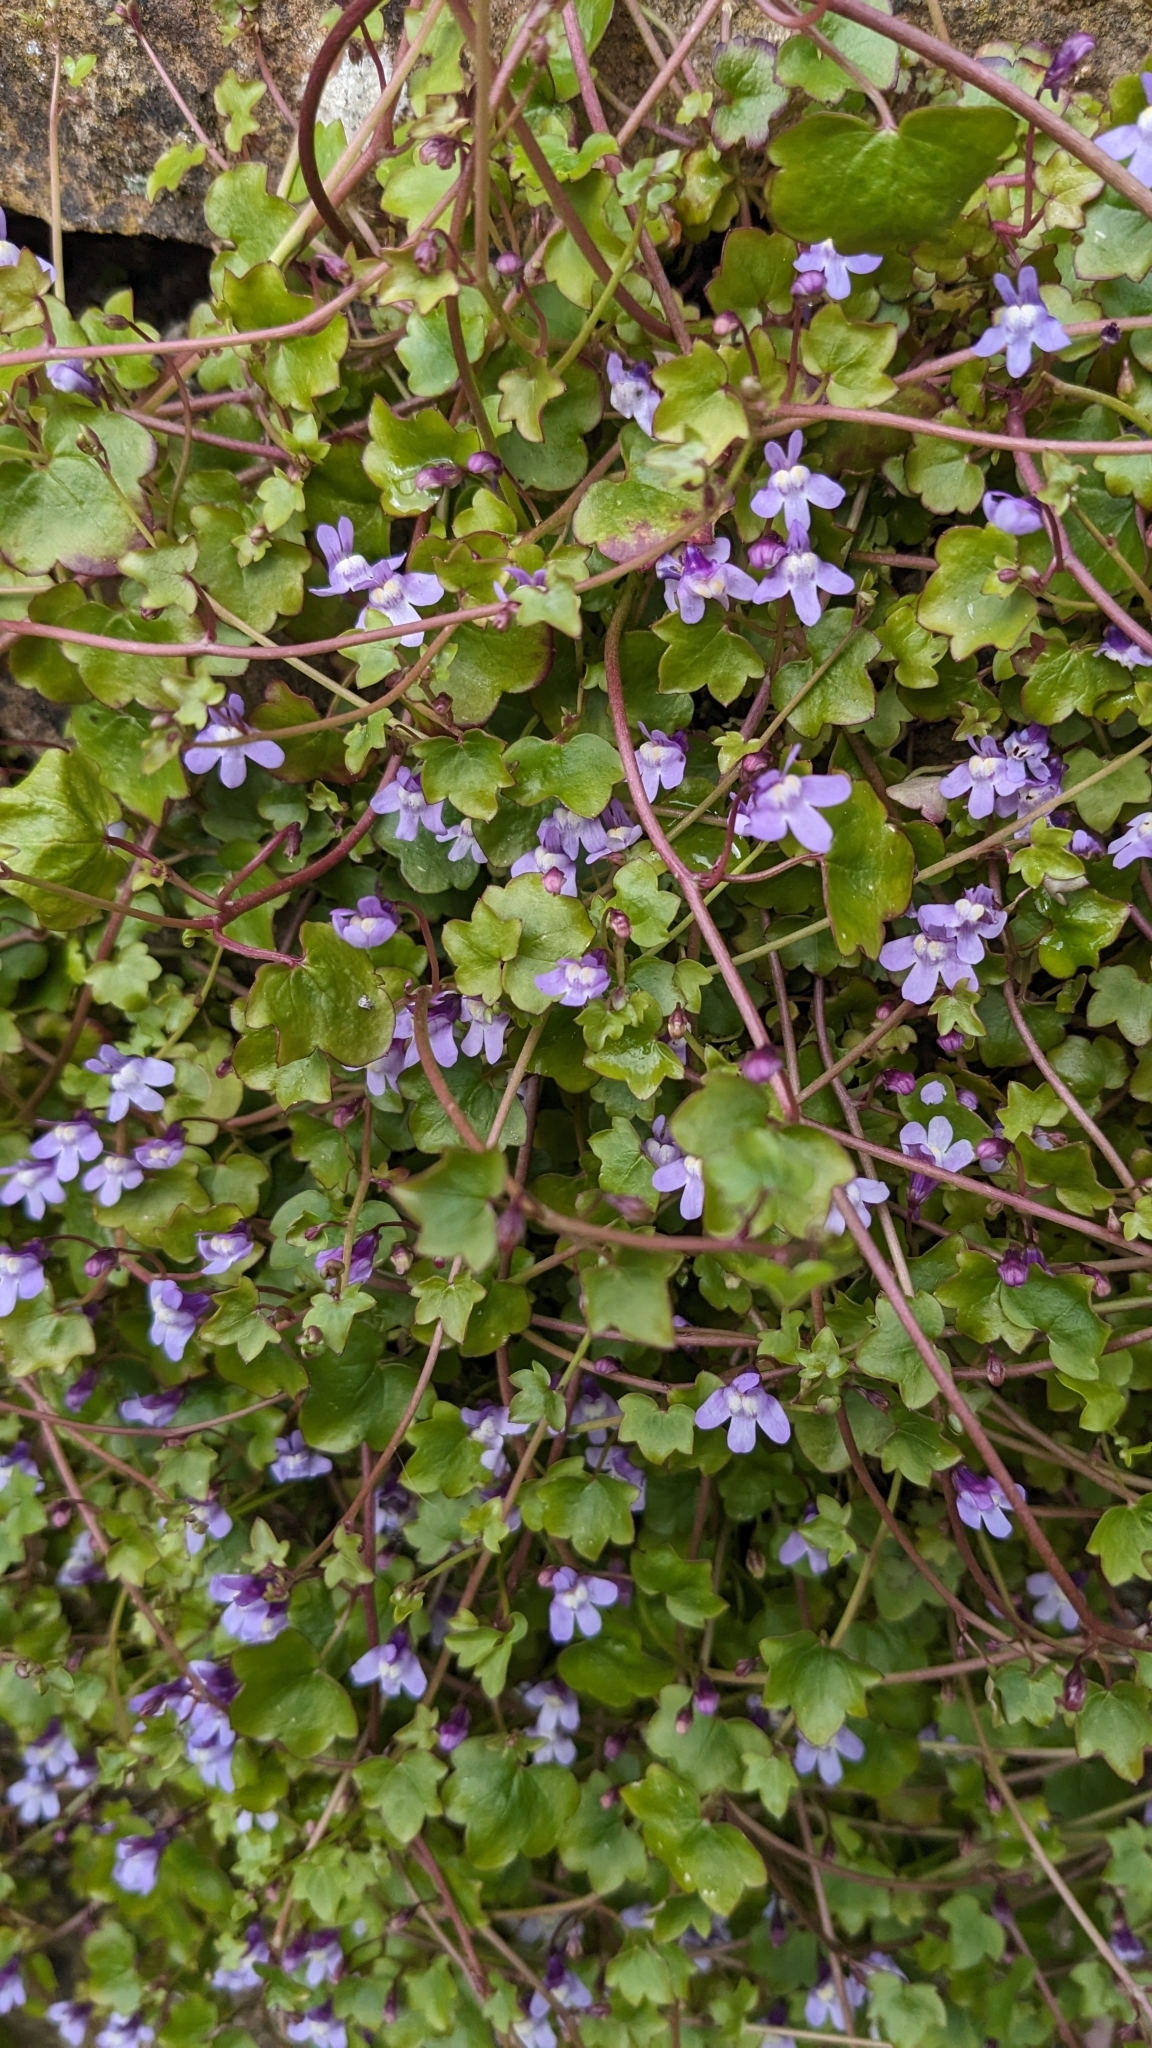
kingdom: Plantae
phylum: Tracheophyta
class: Magnoliopsida
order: Lamiales
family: Plantaginaceae
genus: Cymbalaria
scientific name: Cymbalaria muralis
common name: Ivy-leaved toadflax
